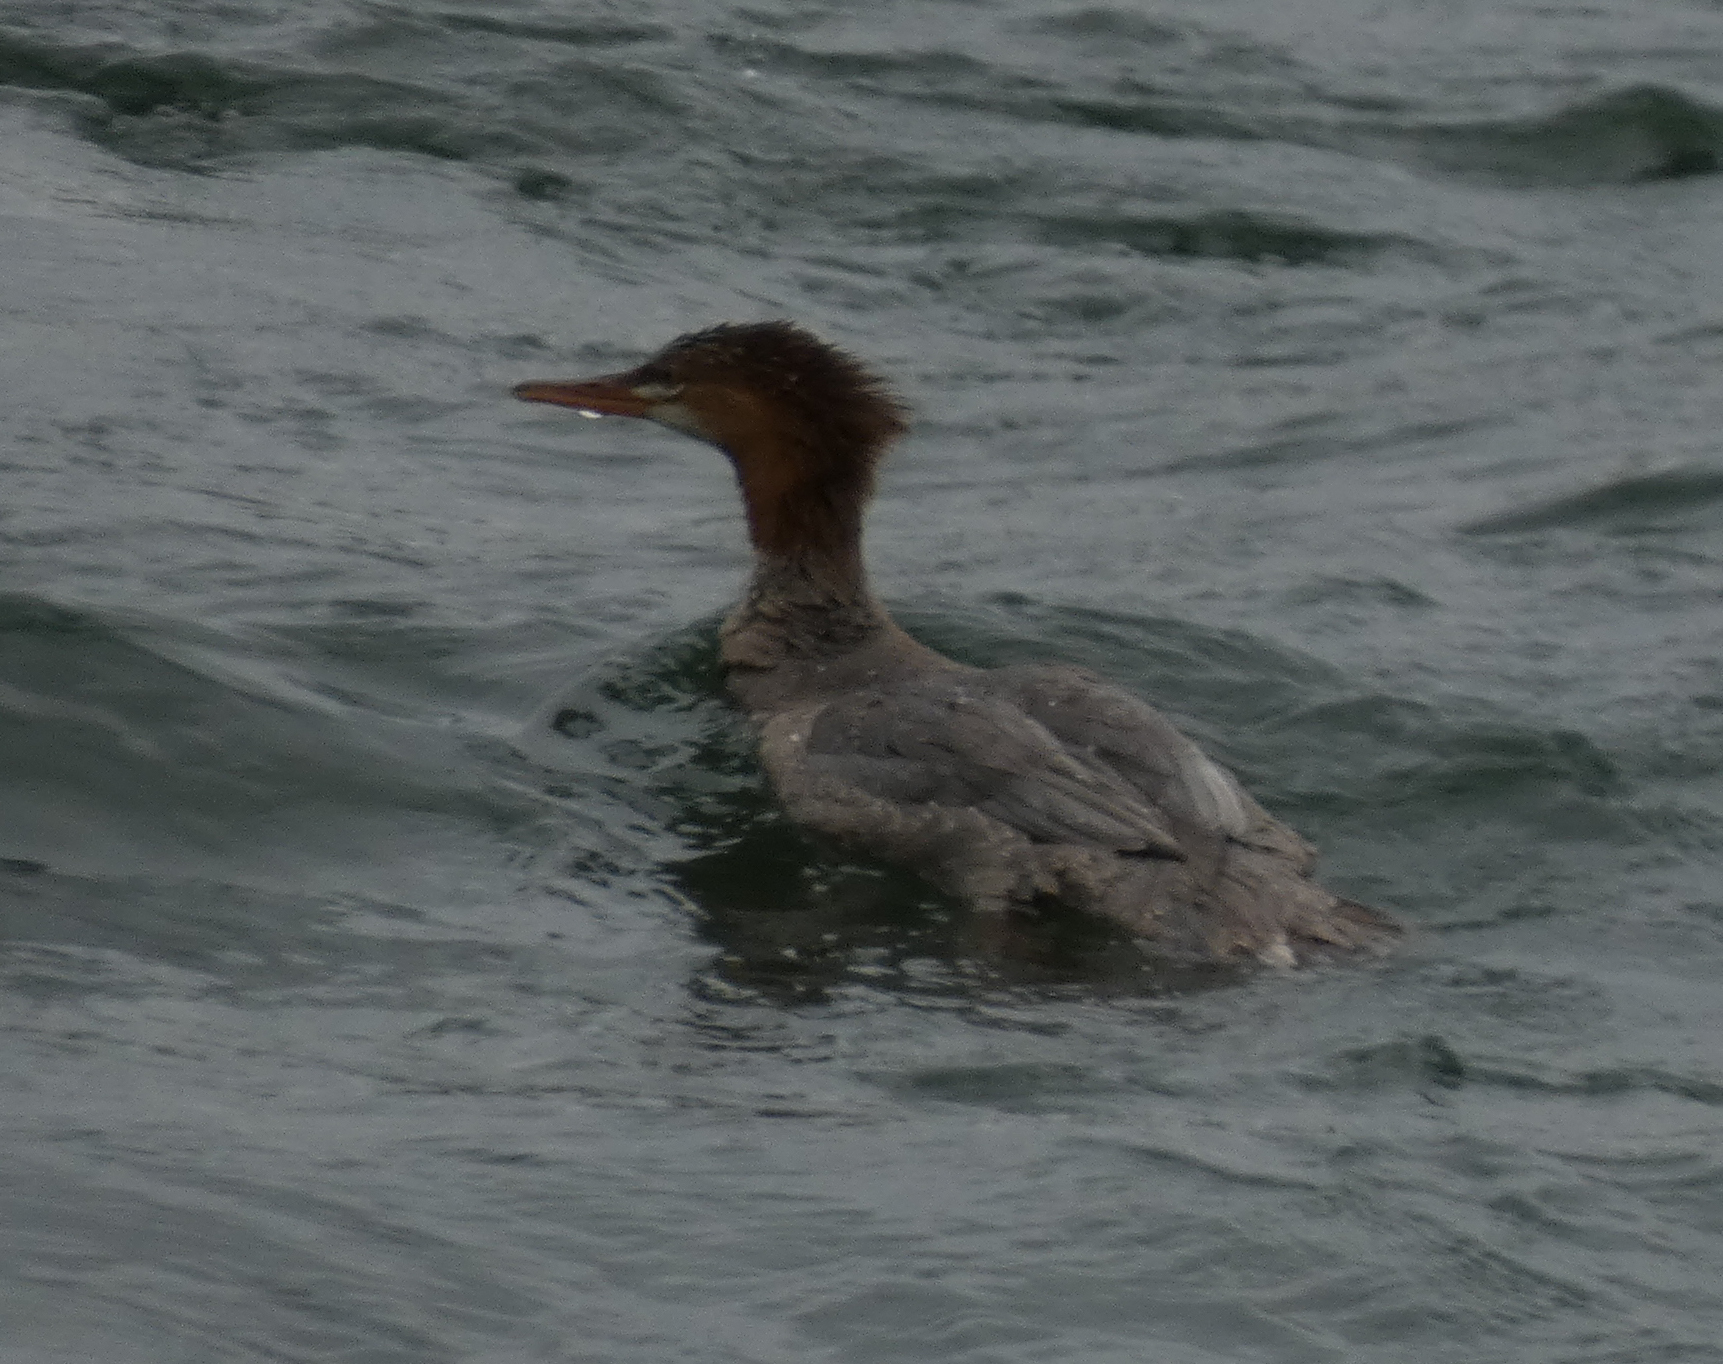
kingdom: Animalia
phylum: Chordata
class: Aves
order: Anseriformes
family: Anatidae
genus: Mergus
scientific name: Mergus merganser
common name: Common merganser
